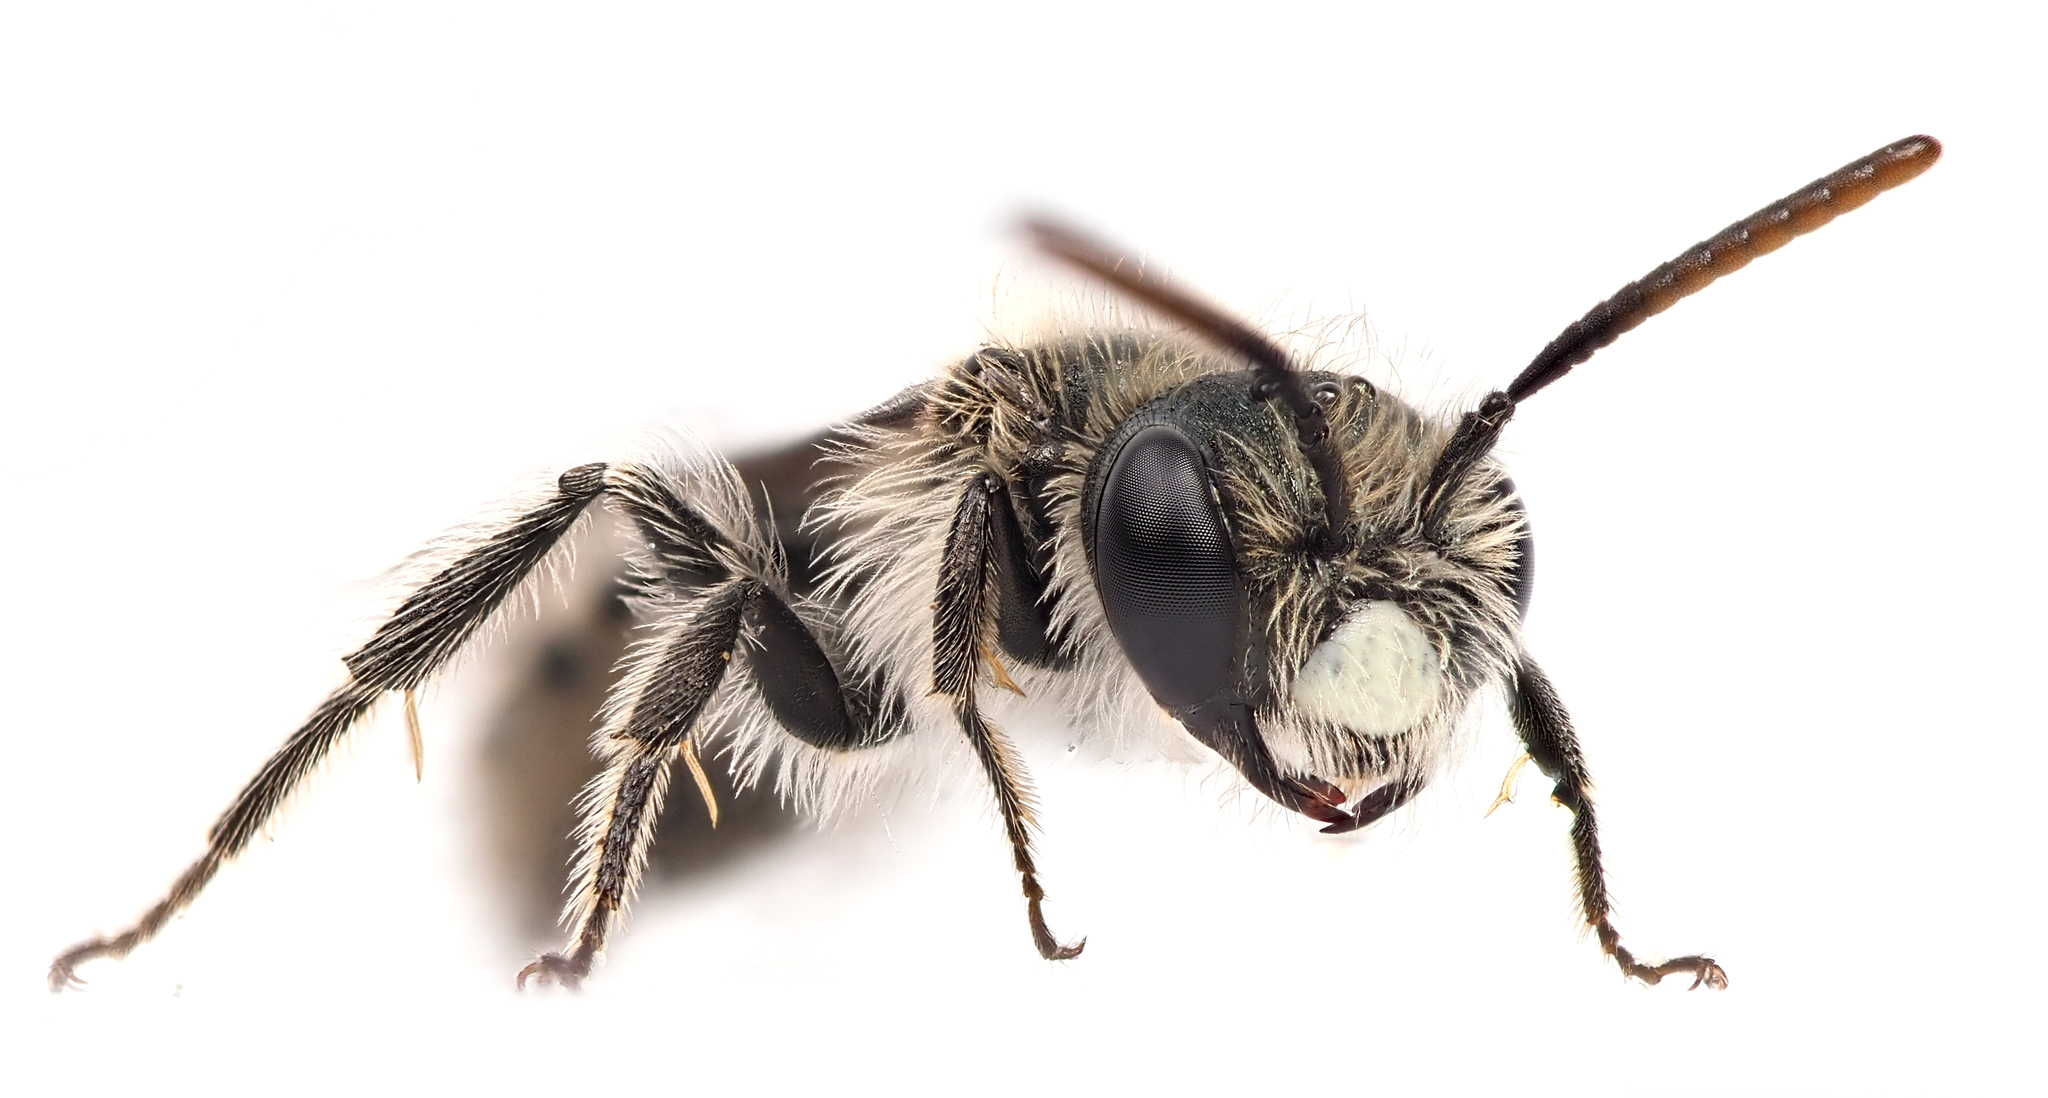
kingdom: Animalia
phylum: Arthropoda
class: Insecta
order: Hymenoptera
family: Andrenidae
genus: Andrena
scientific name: Andrena viridescens
